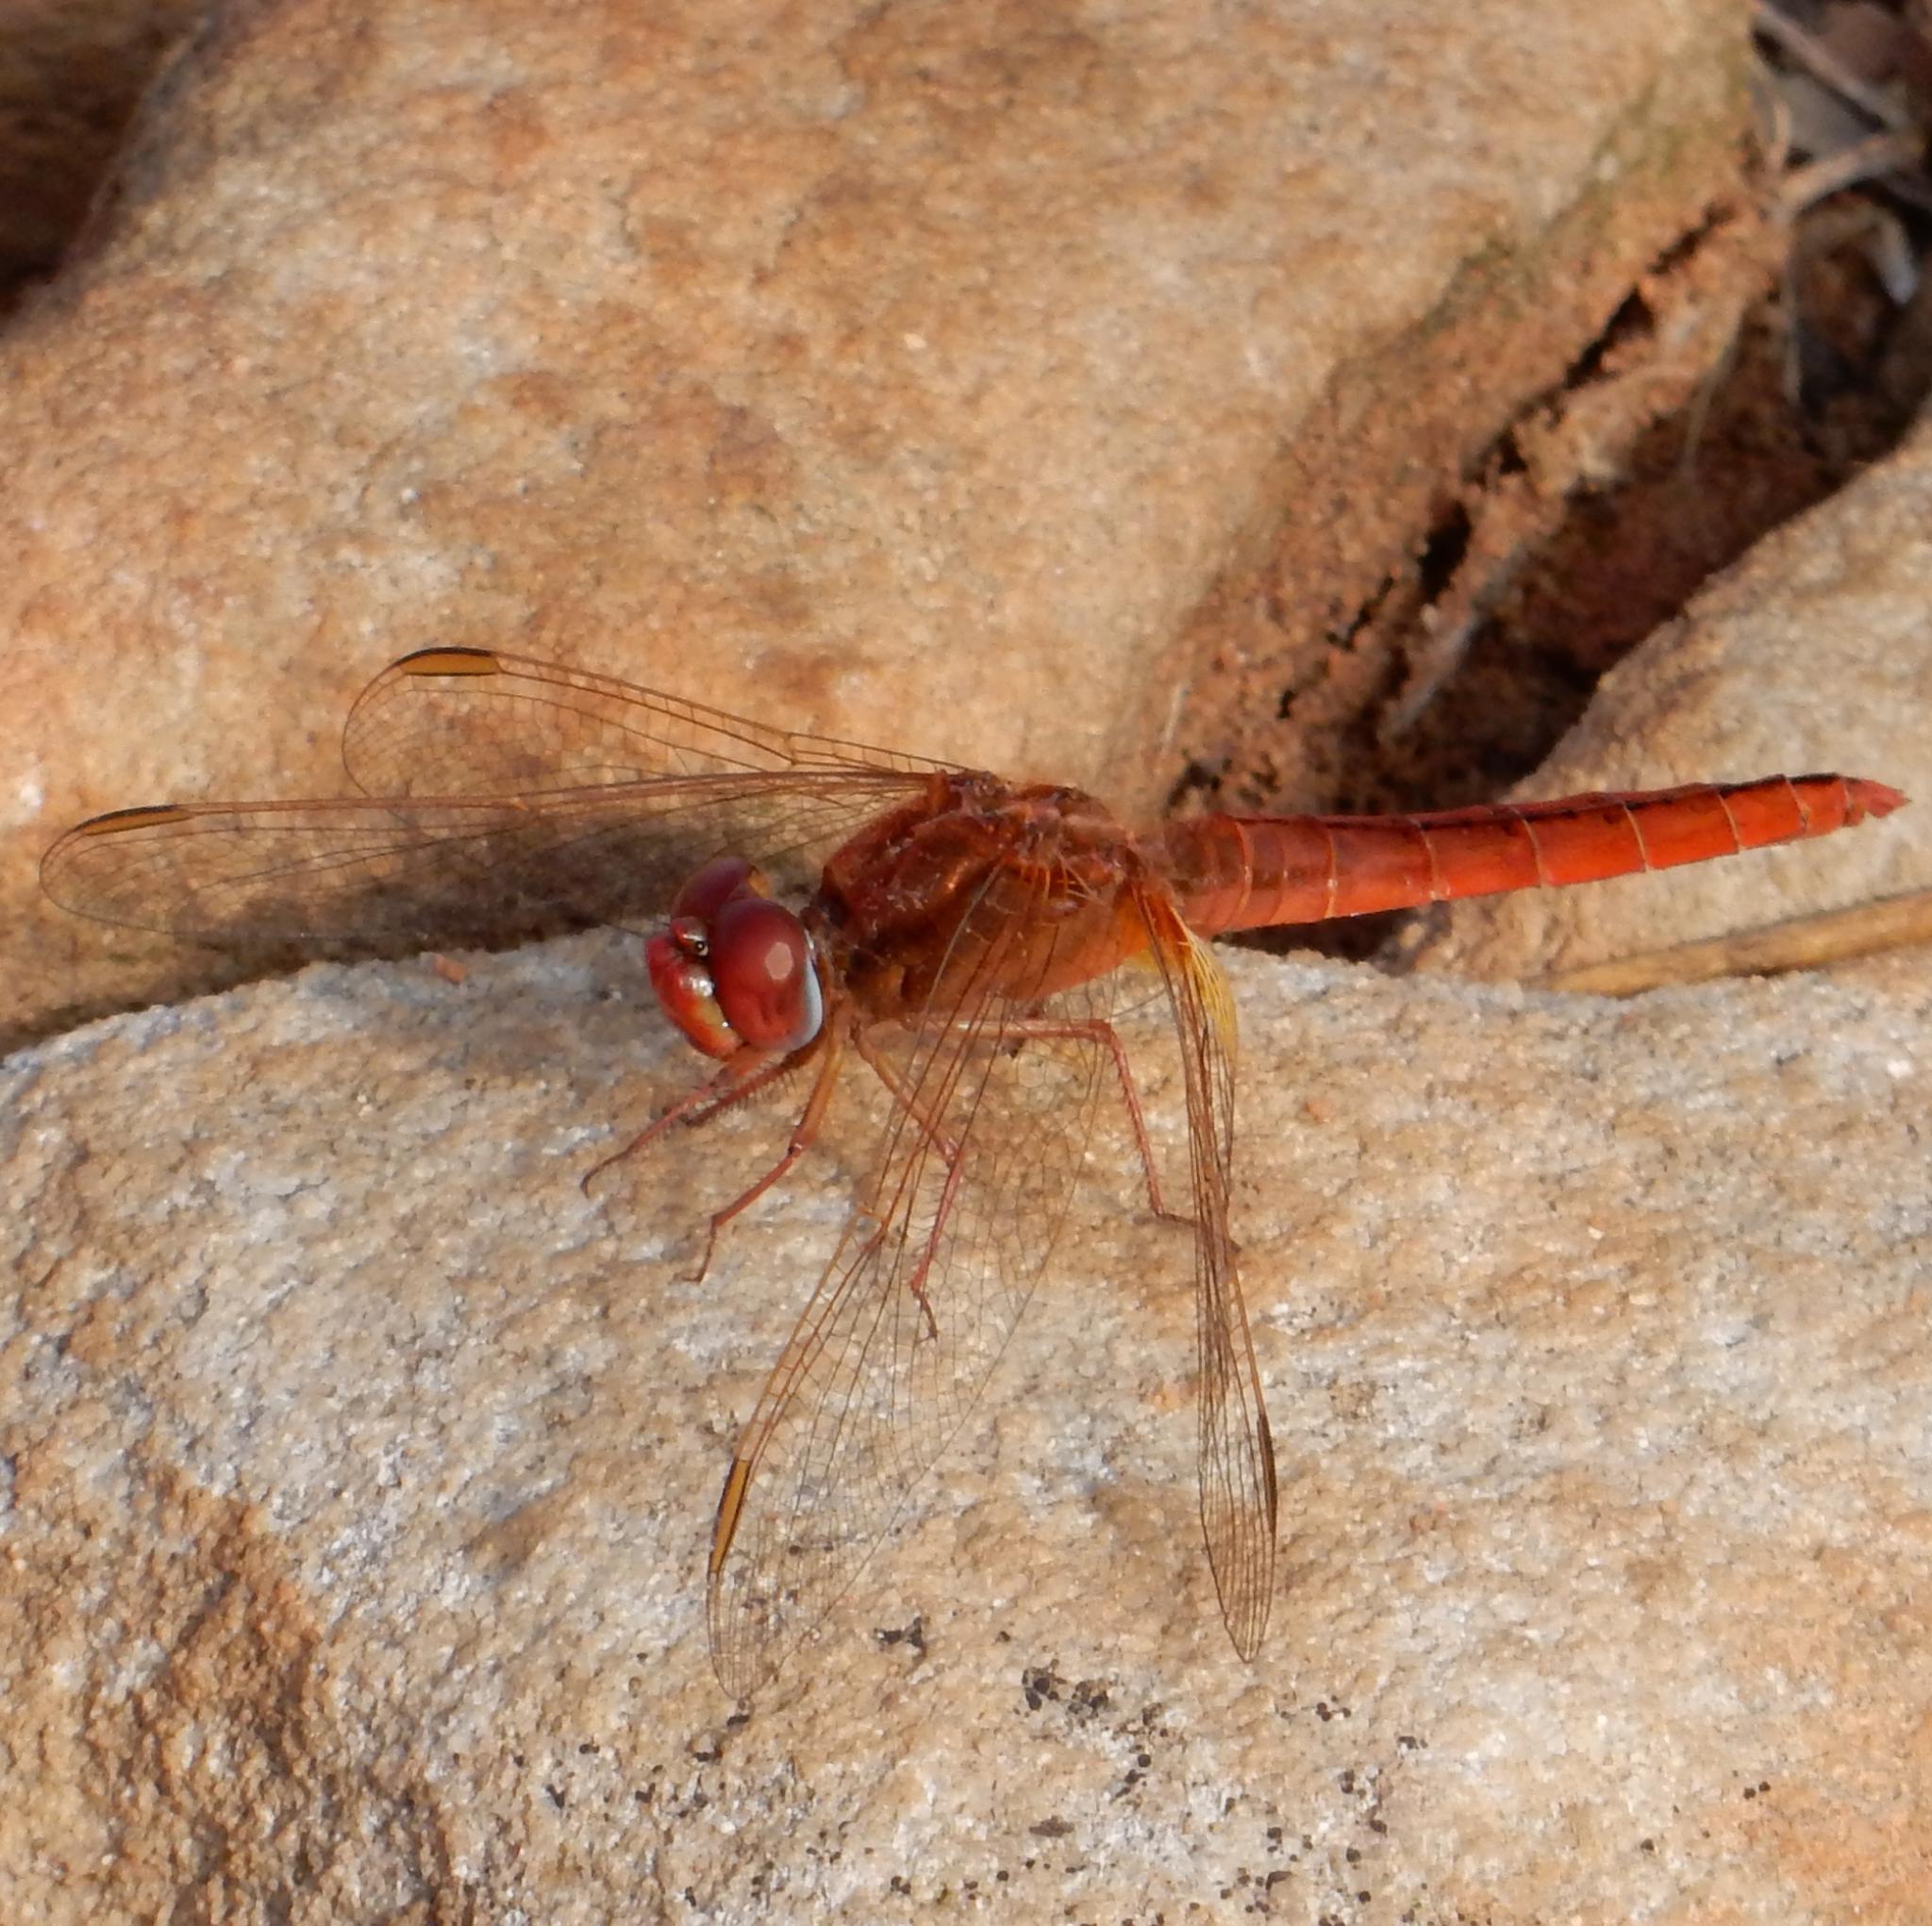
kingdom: Animalia
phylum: Arthropoda
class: Insecta
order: Odonata
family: Libellulidae
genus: Crocothemis
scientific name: Crocothemis erythraea
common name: Scarlet dragonfly
